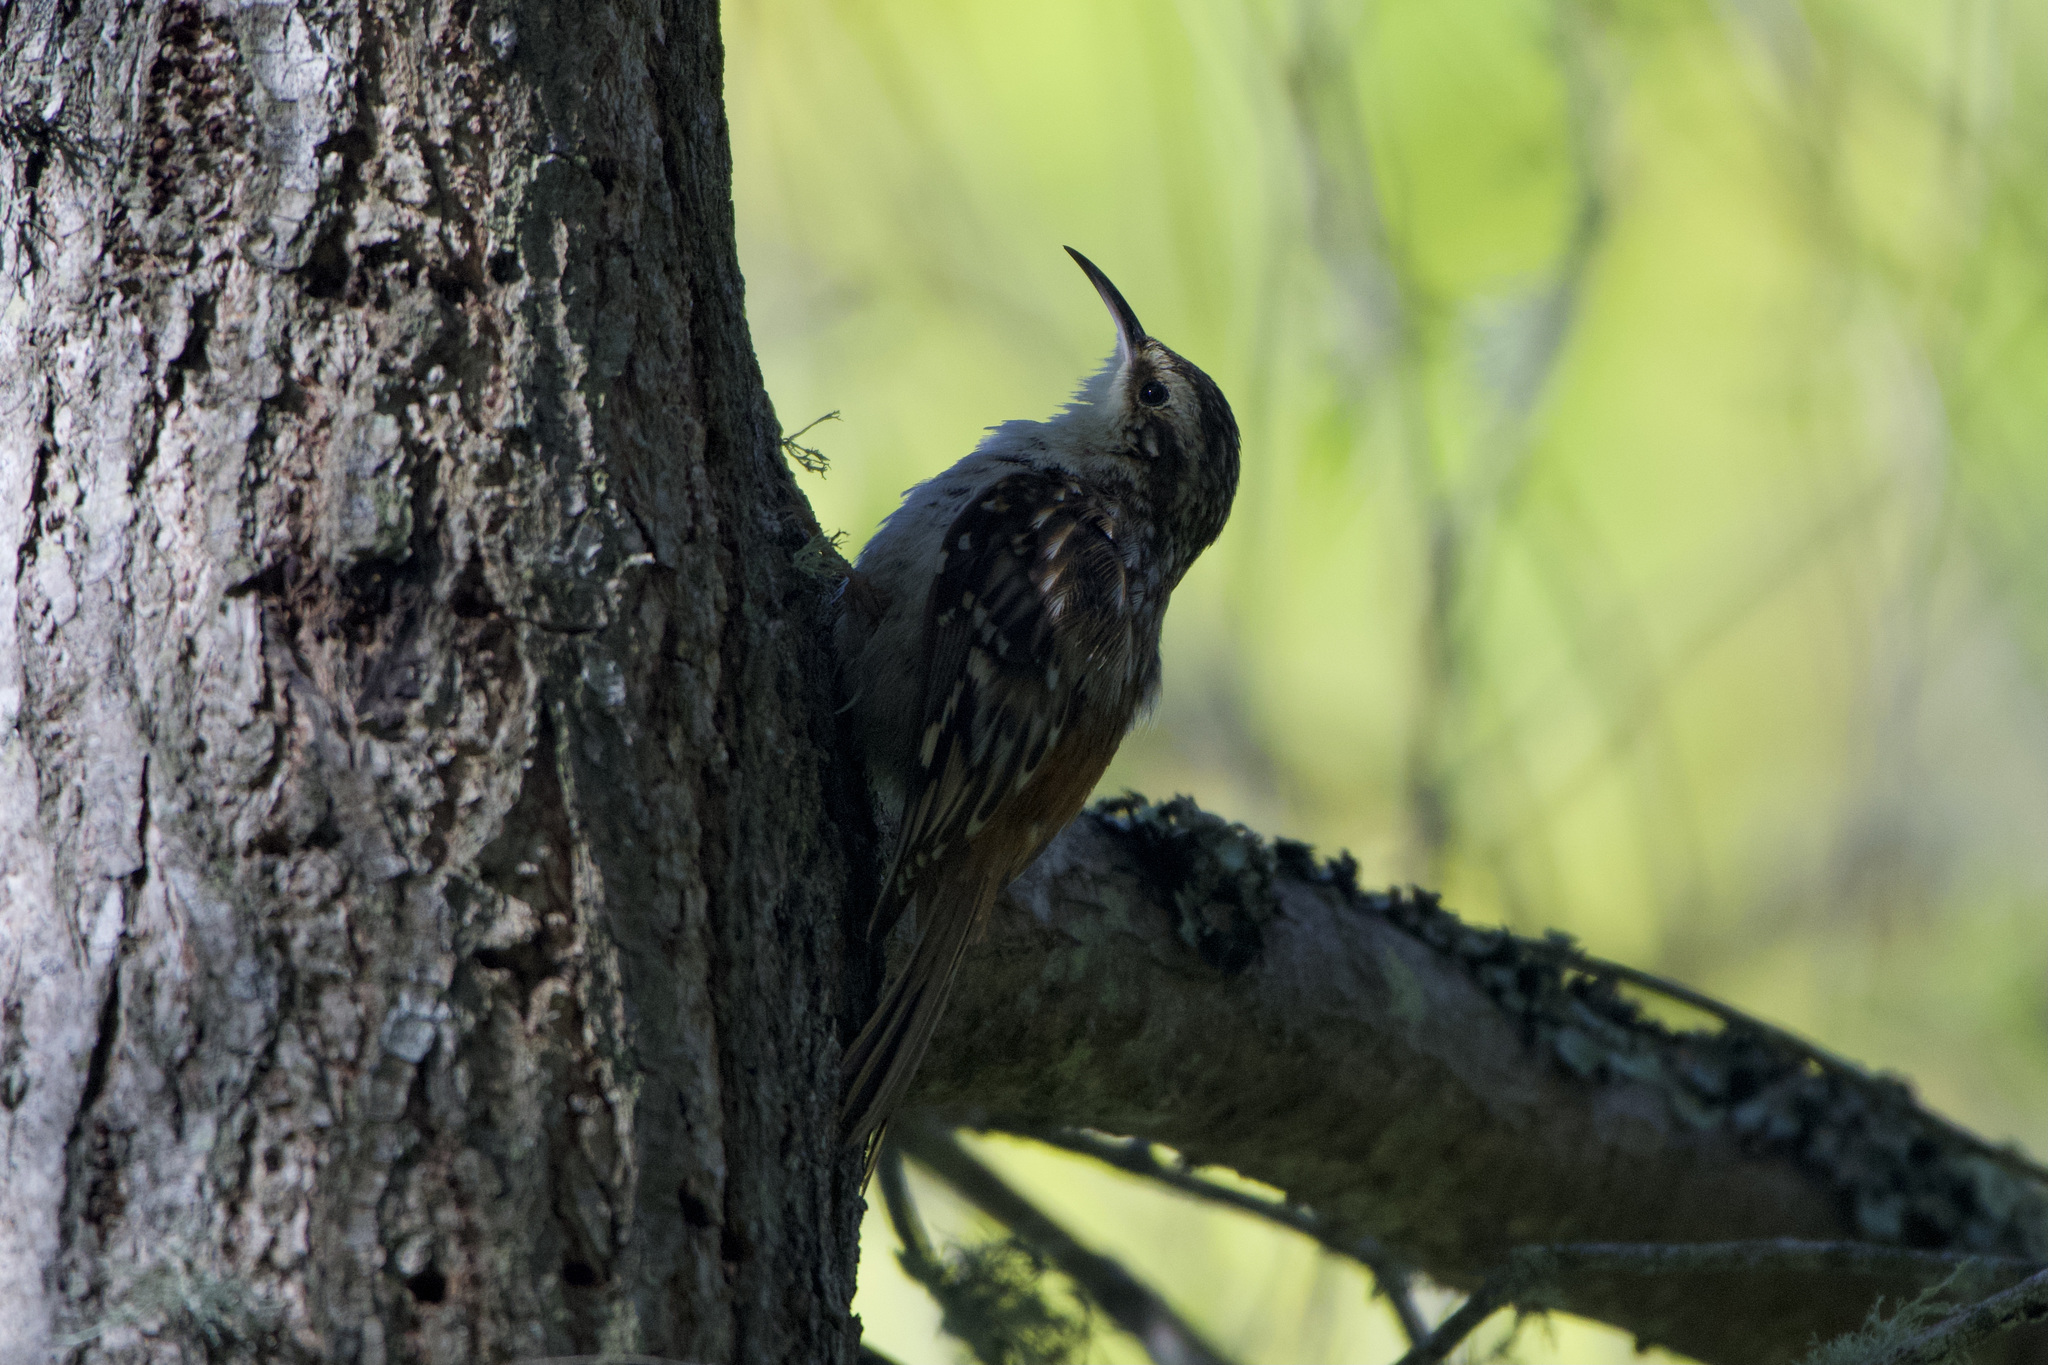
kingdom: Animalia
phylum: Chordata
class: Aves
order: Passeriformes
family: Certhiidae
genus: Certhia
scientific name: Certhia americana
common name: Brown creeper
